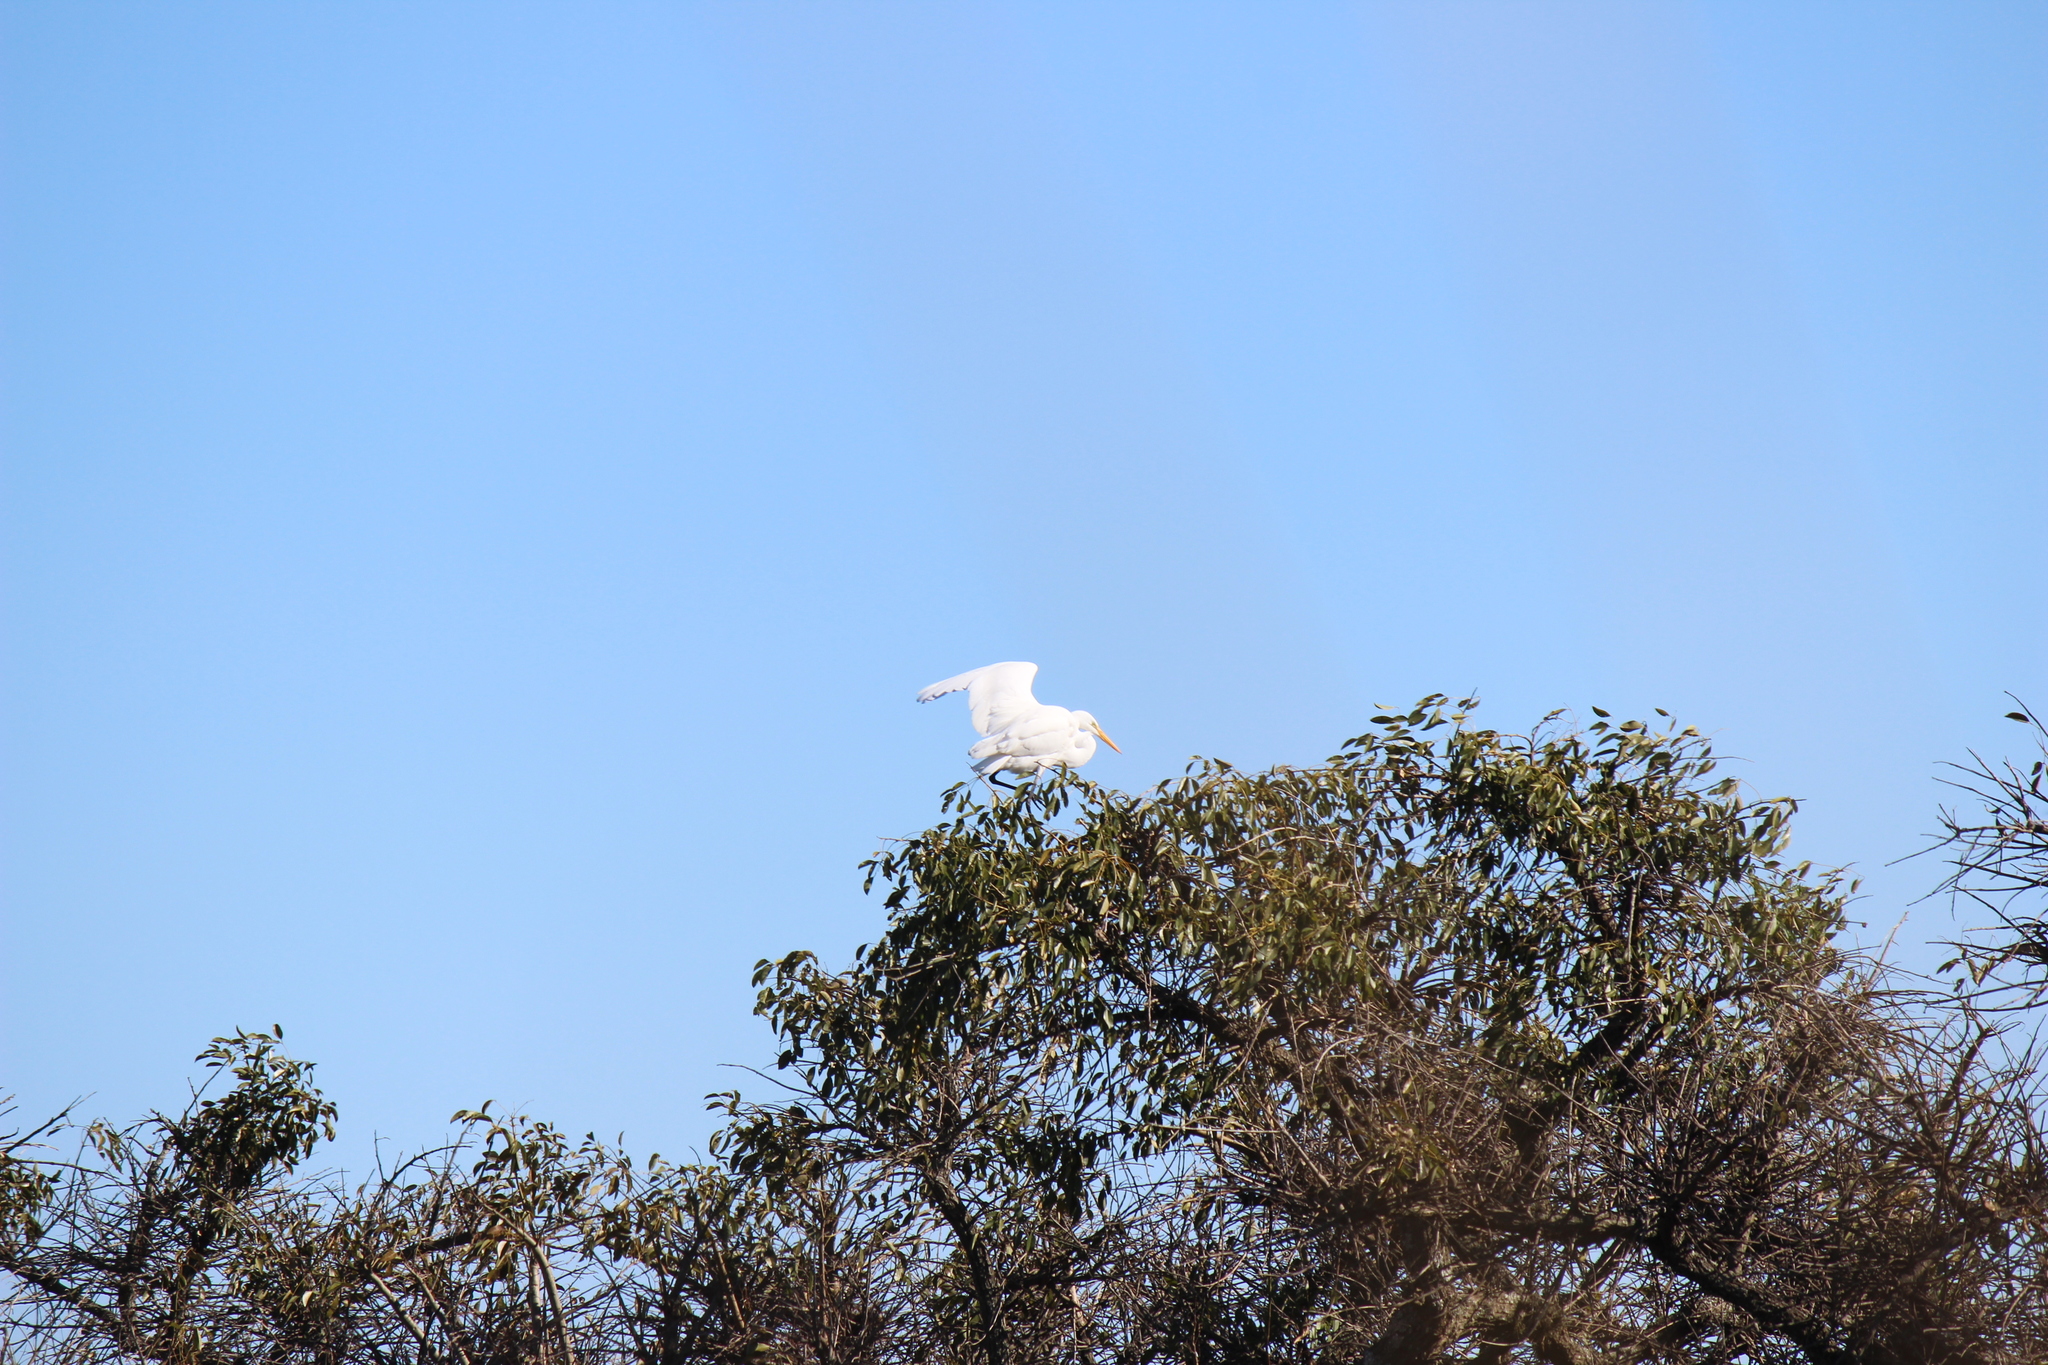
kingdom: Animalia
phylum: Chordata
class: Aves
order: Pelecaniformes
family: Ardeidae
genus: Ardea
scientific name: Ardea alba
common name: Great egret
